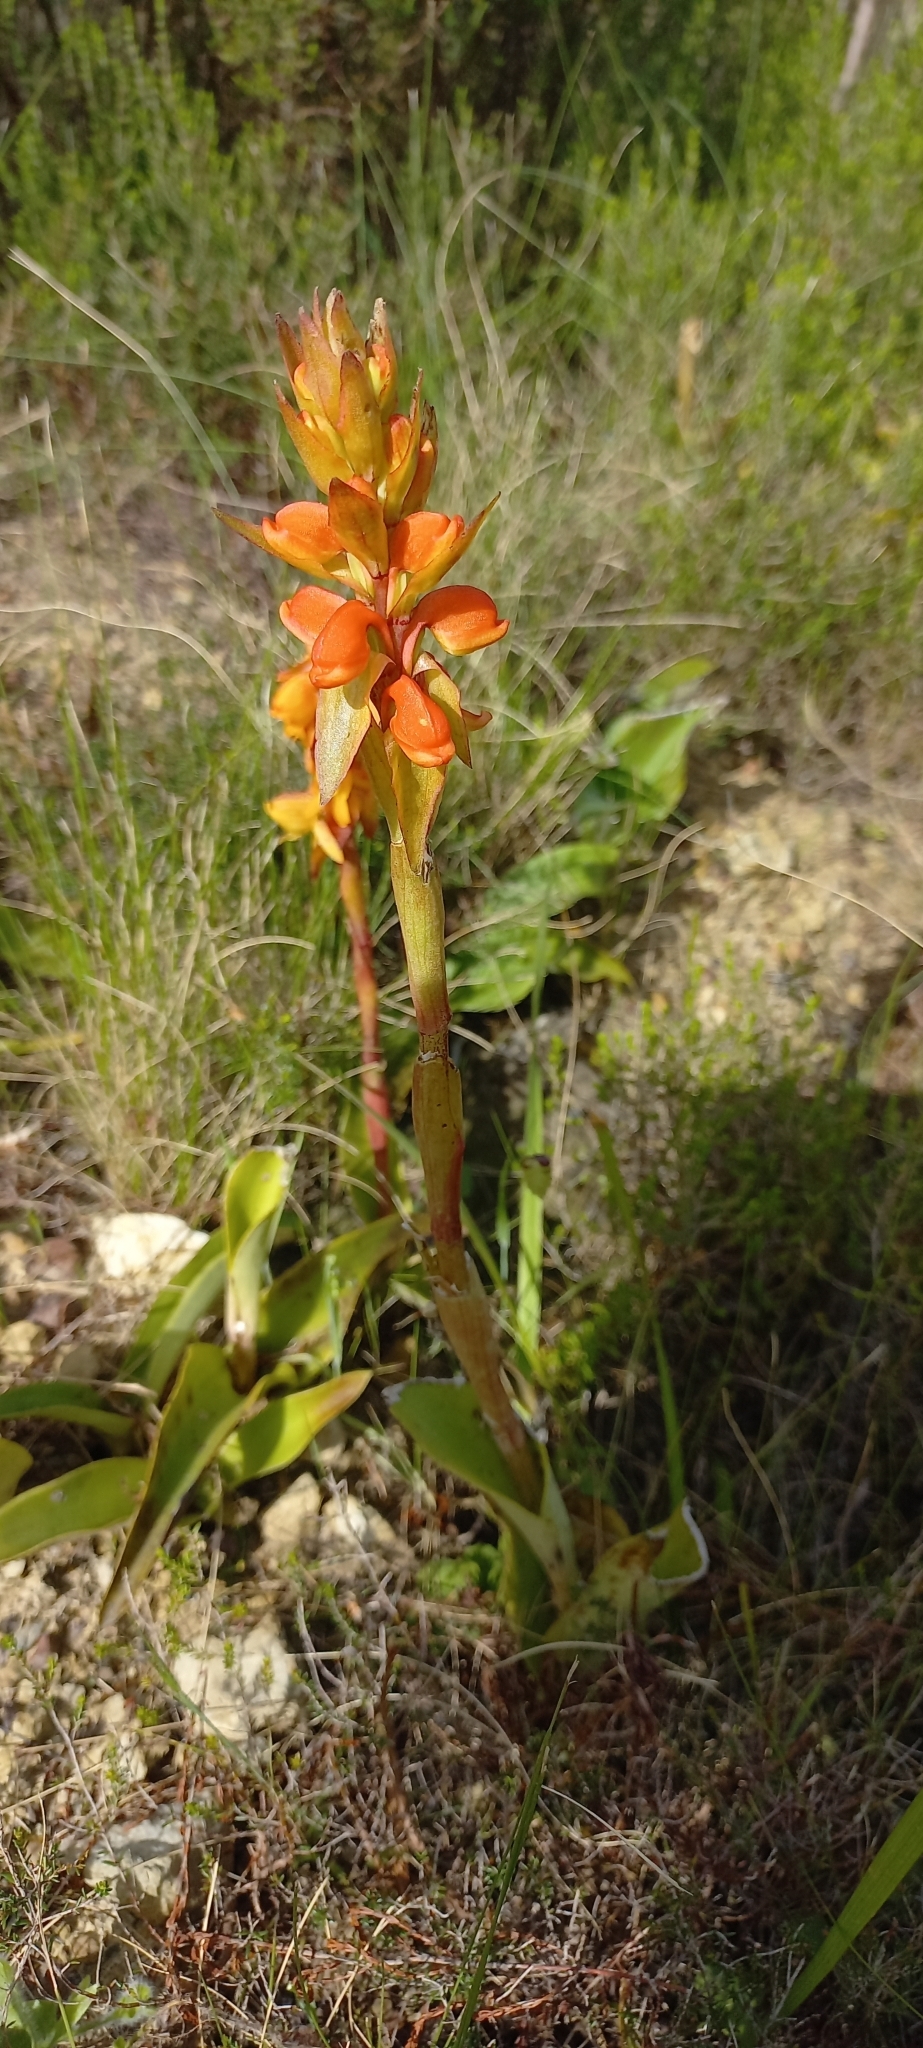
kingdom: Plantae
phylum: Tracheophyta
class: Liliopsida
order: Asparagales
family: Orchidaceae
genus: Satyrium
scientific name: Satyrium coriifolium
